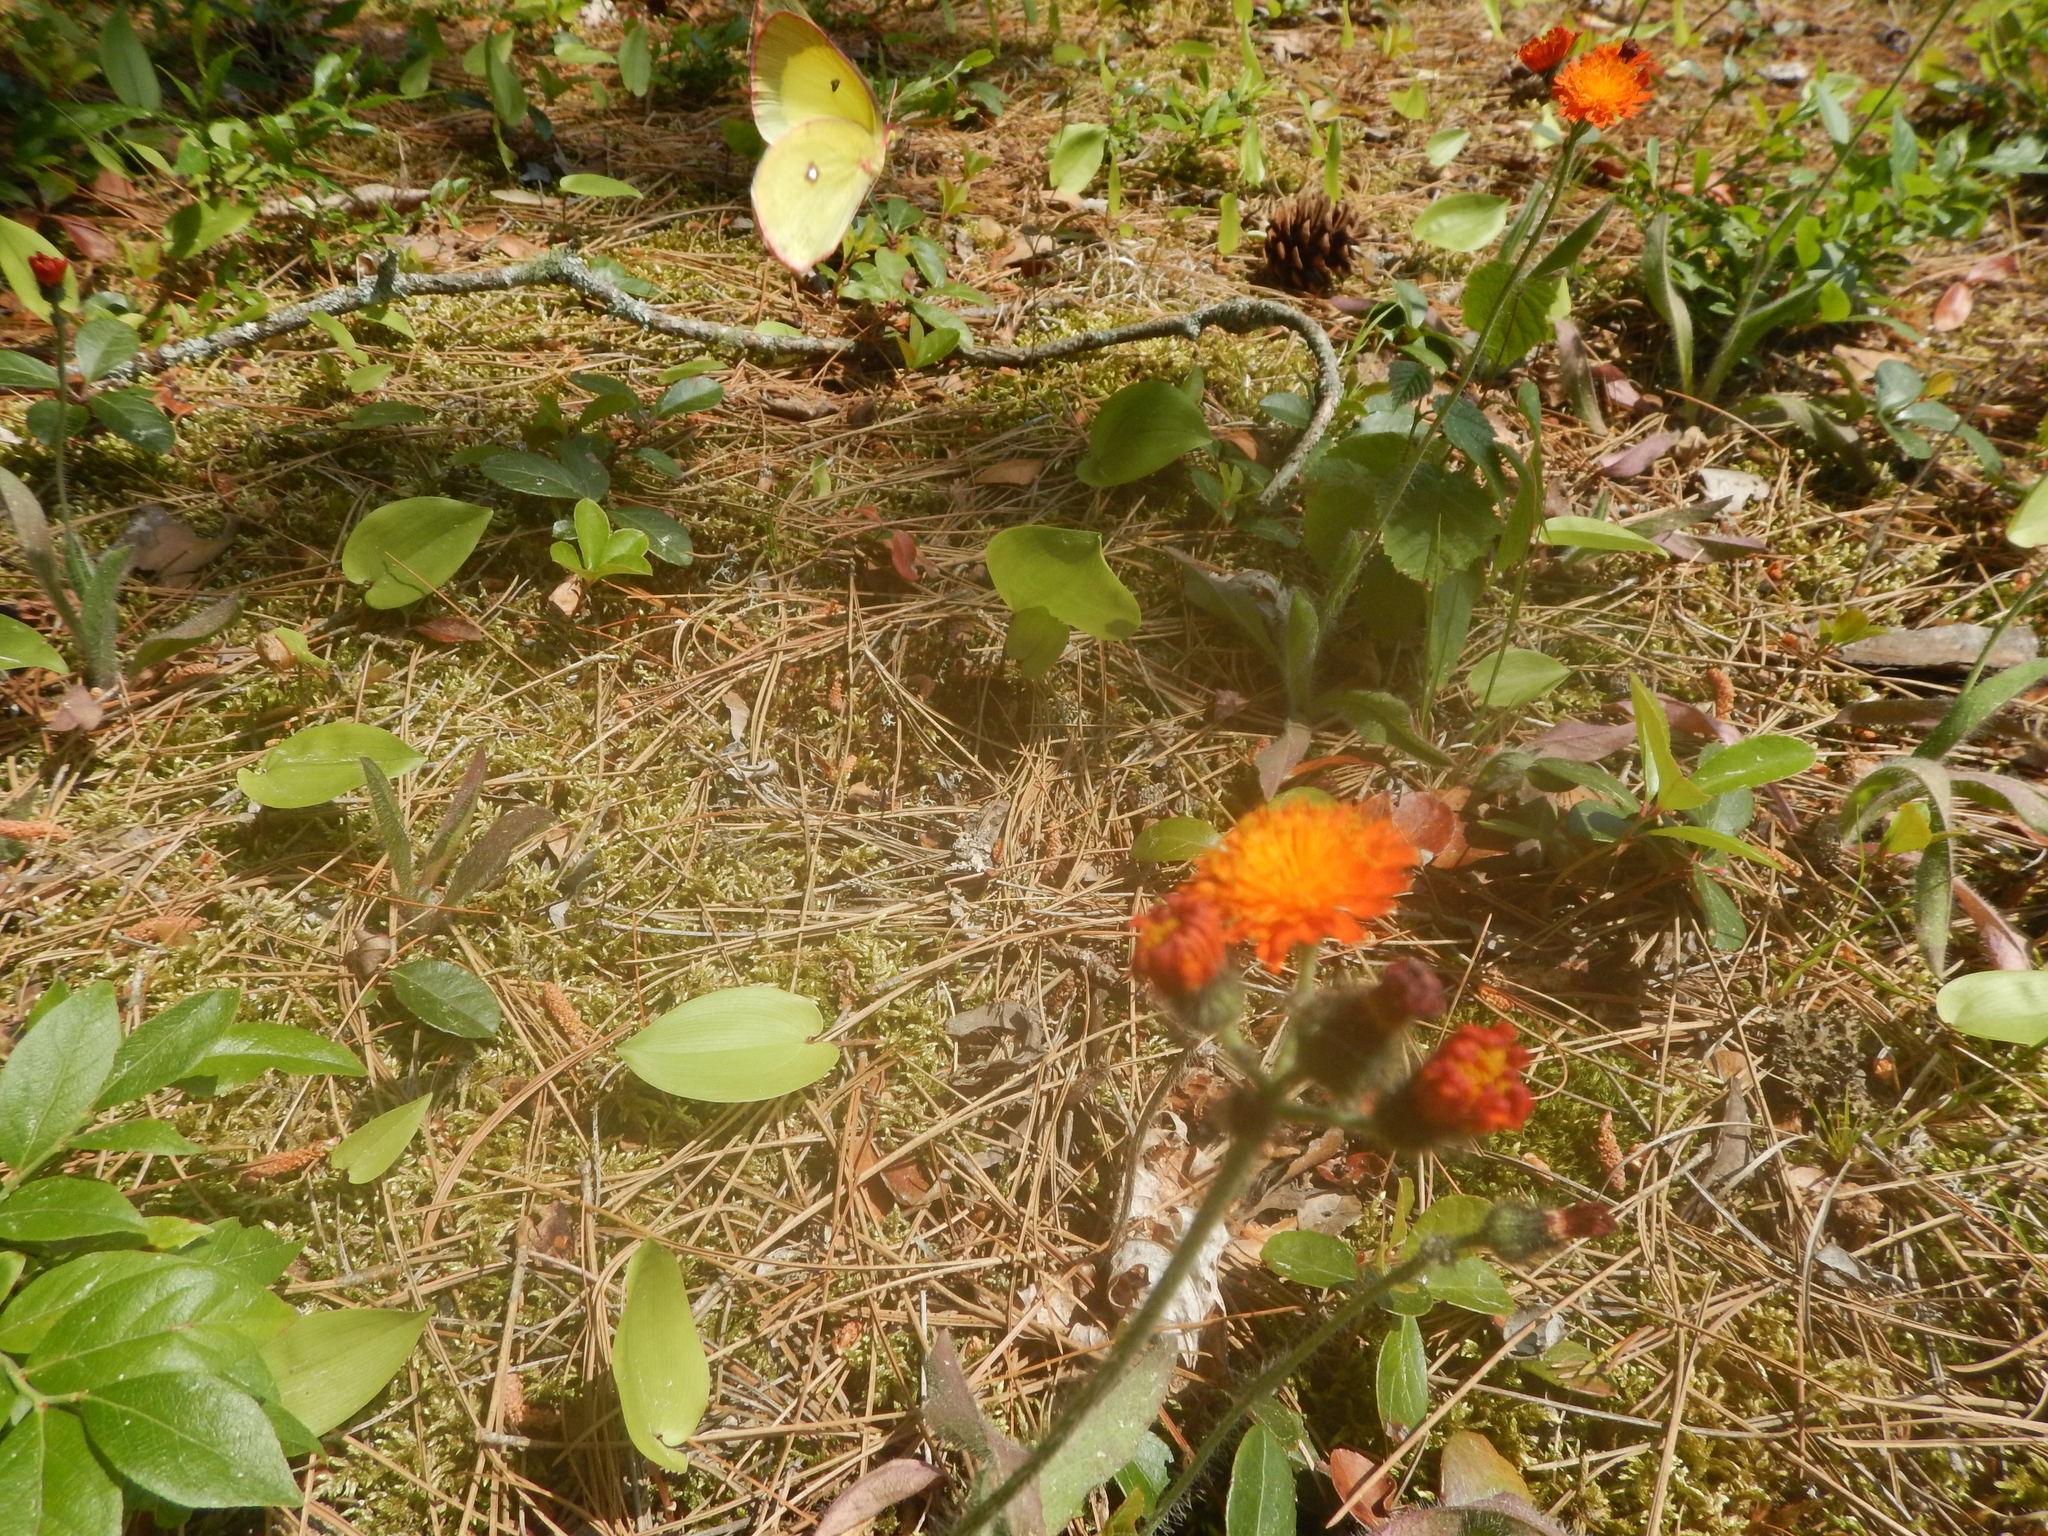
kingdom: Animalia
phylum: Arthropoda
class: Insecta
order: Lepidoptera
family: Pieridae
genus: Colias
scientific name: Colias interior
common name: Pink-edged sulphur
